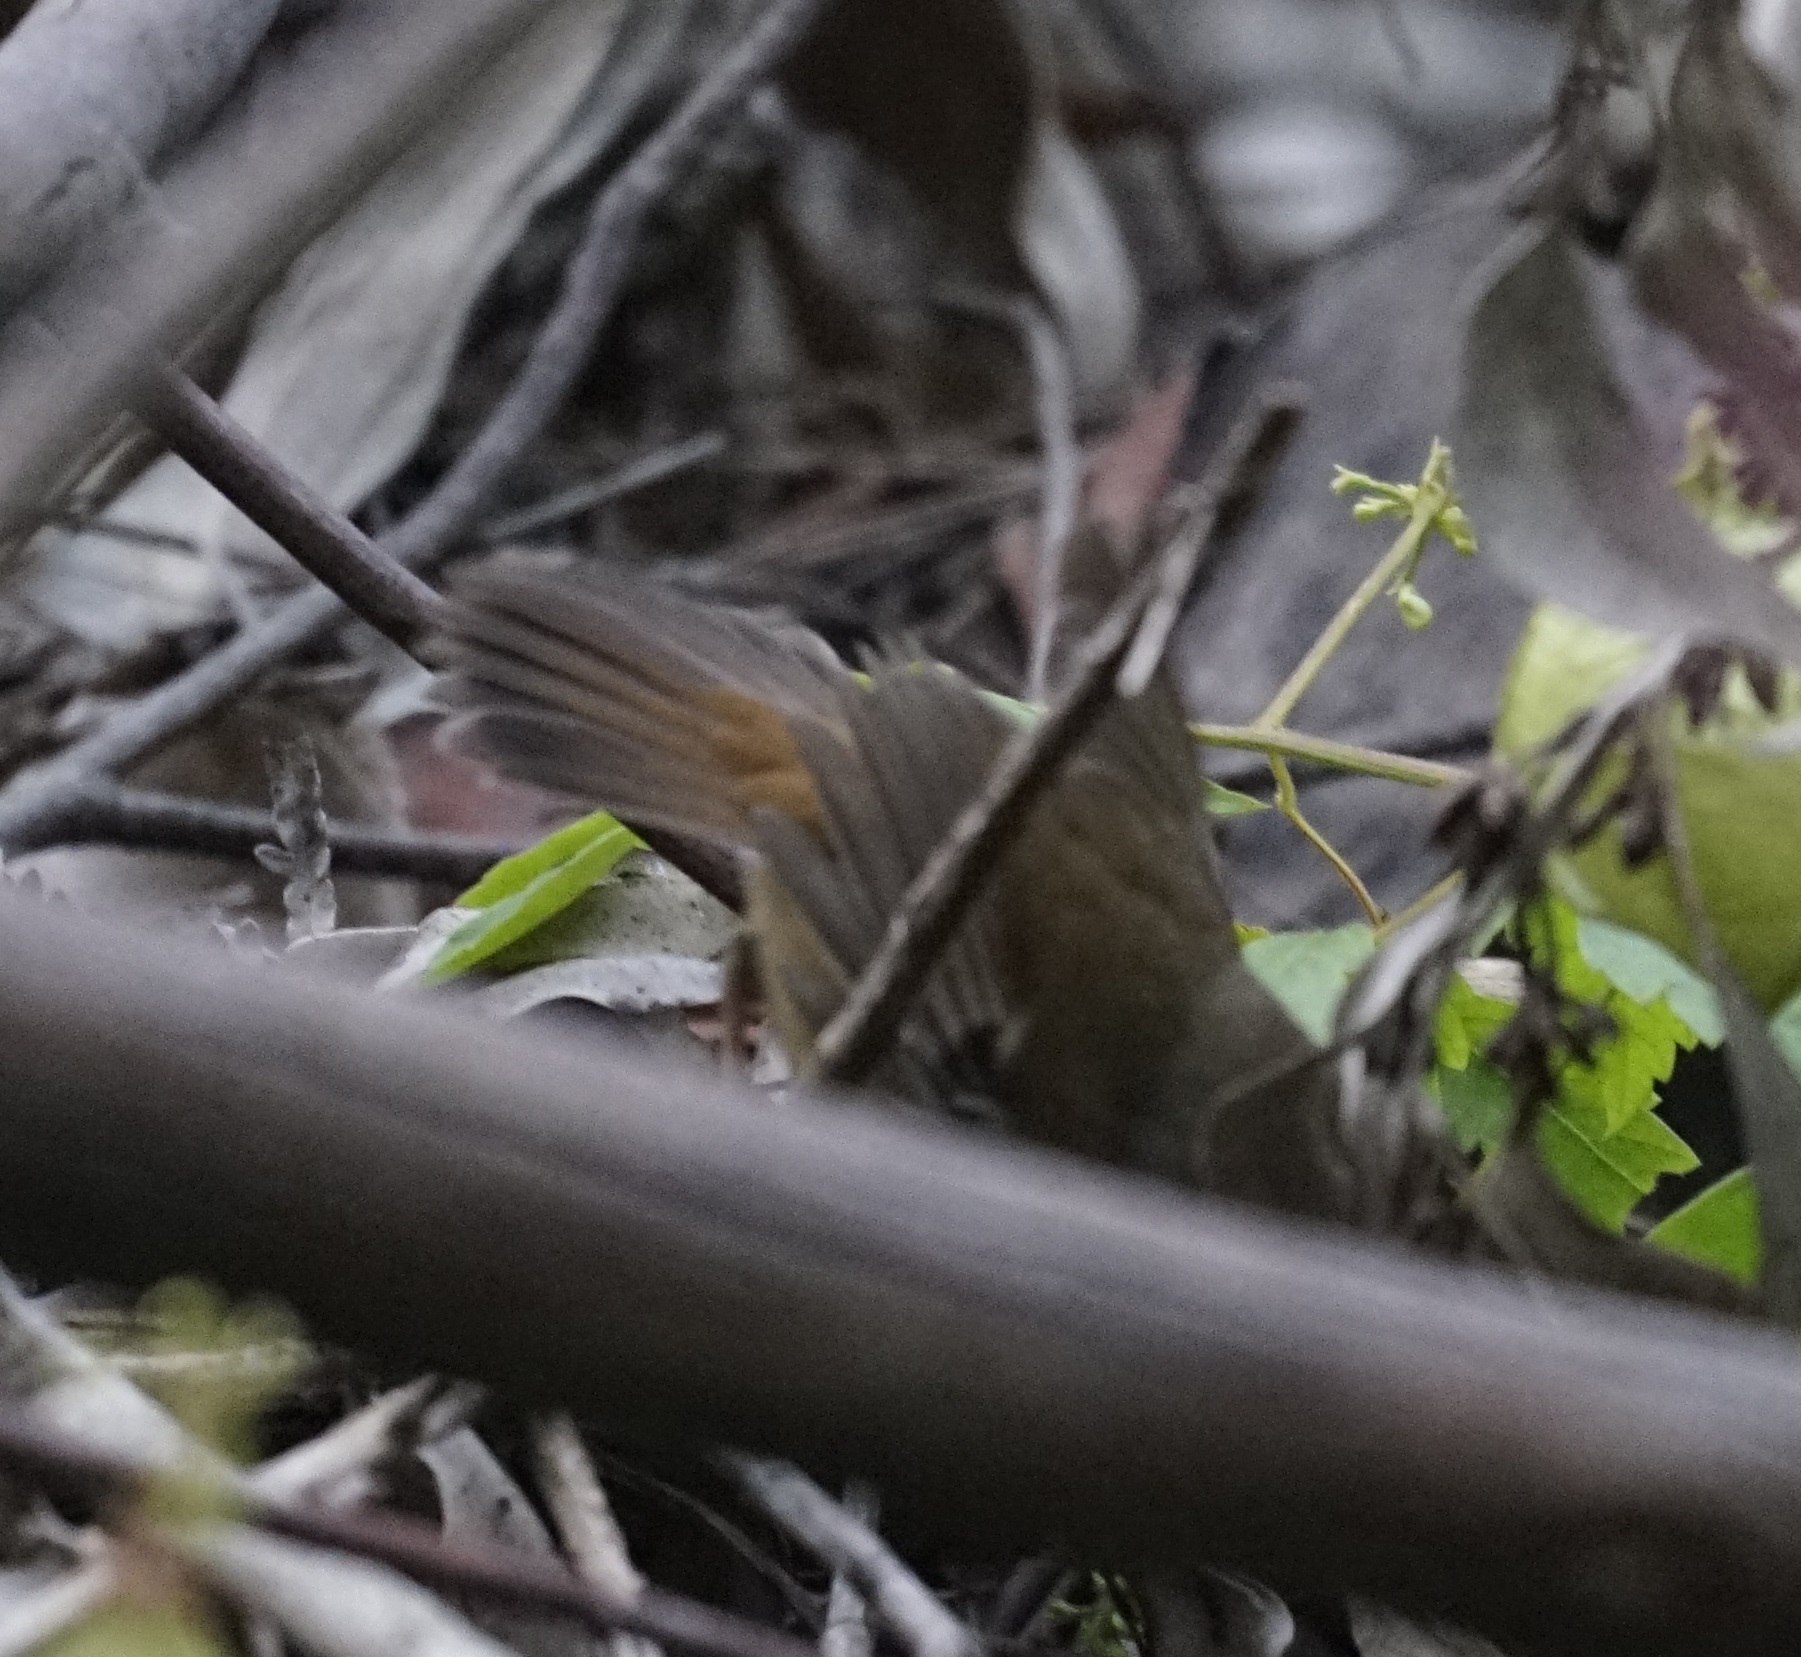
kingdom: Animalia
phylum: Chordata
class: Aves
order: Passeriformes
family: Acanthizidae
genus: Sericornis
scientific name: Sericornis frontalis
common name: White-browed scrubwren
